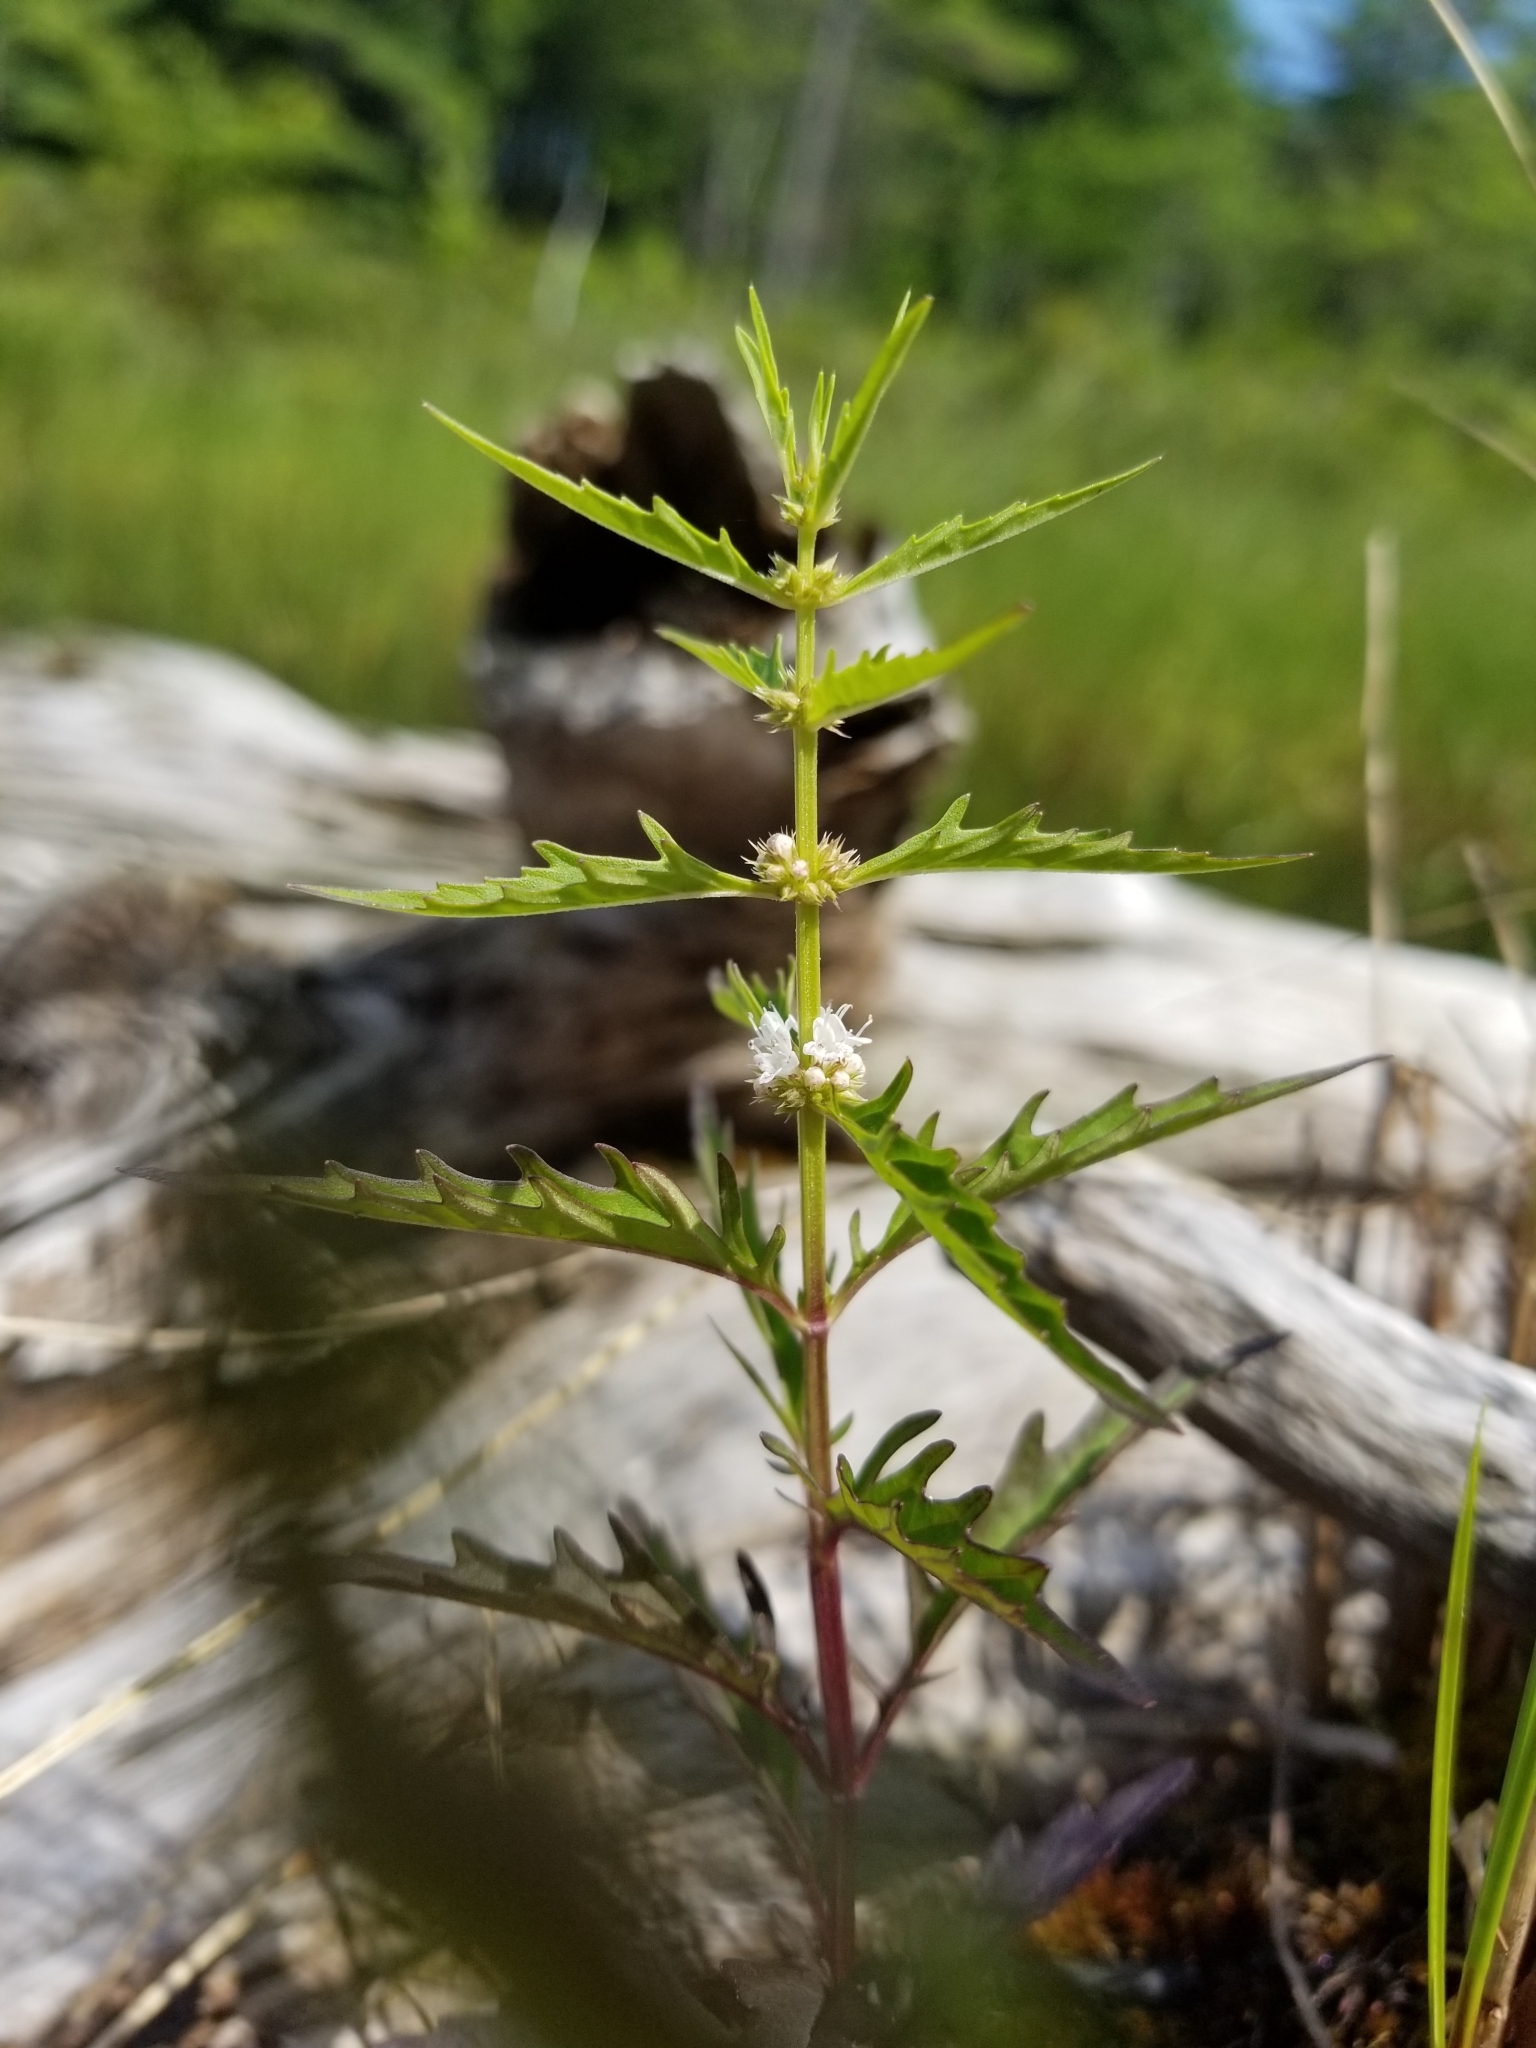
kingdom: Plantae
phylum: Tracheophyta
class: Magnoliopsida
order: Lamiales
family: Lamiaceae
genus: Lycopus
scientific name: Lycopus americanus
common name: American bugleweed
